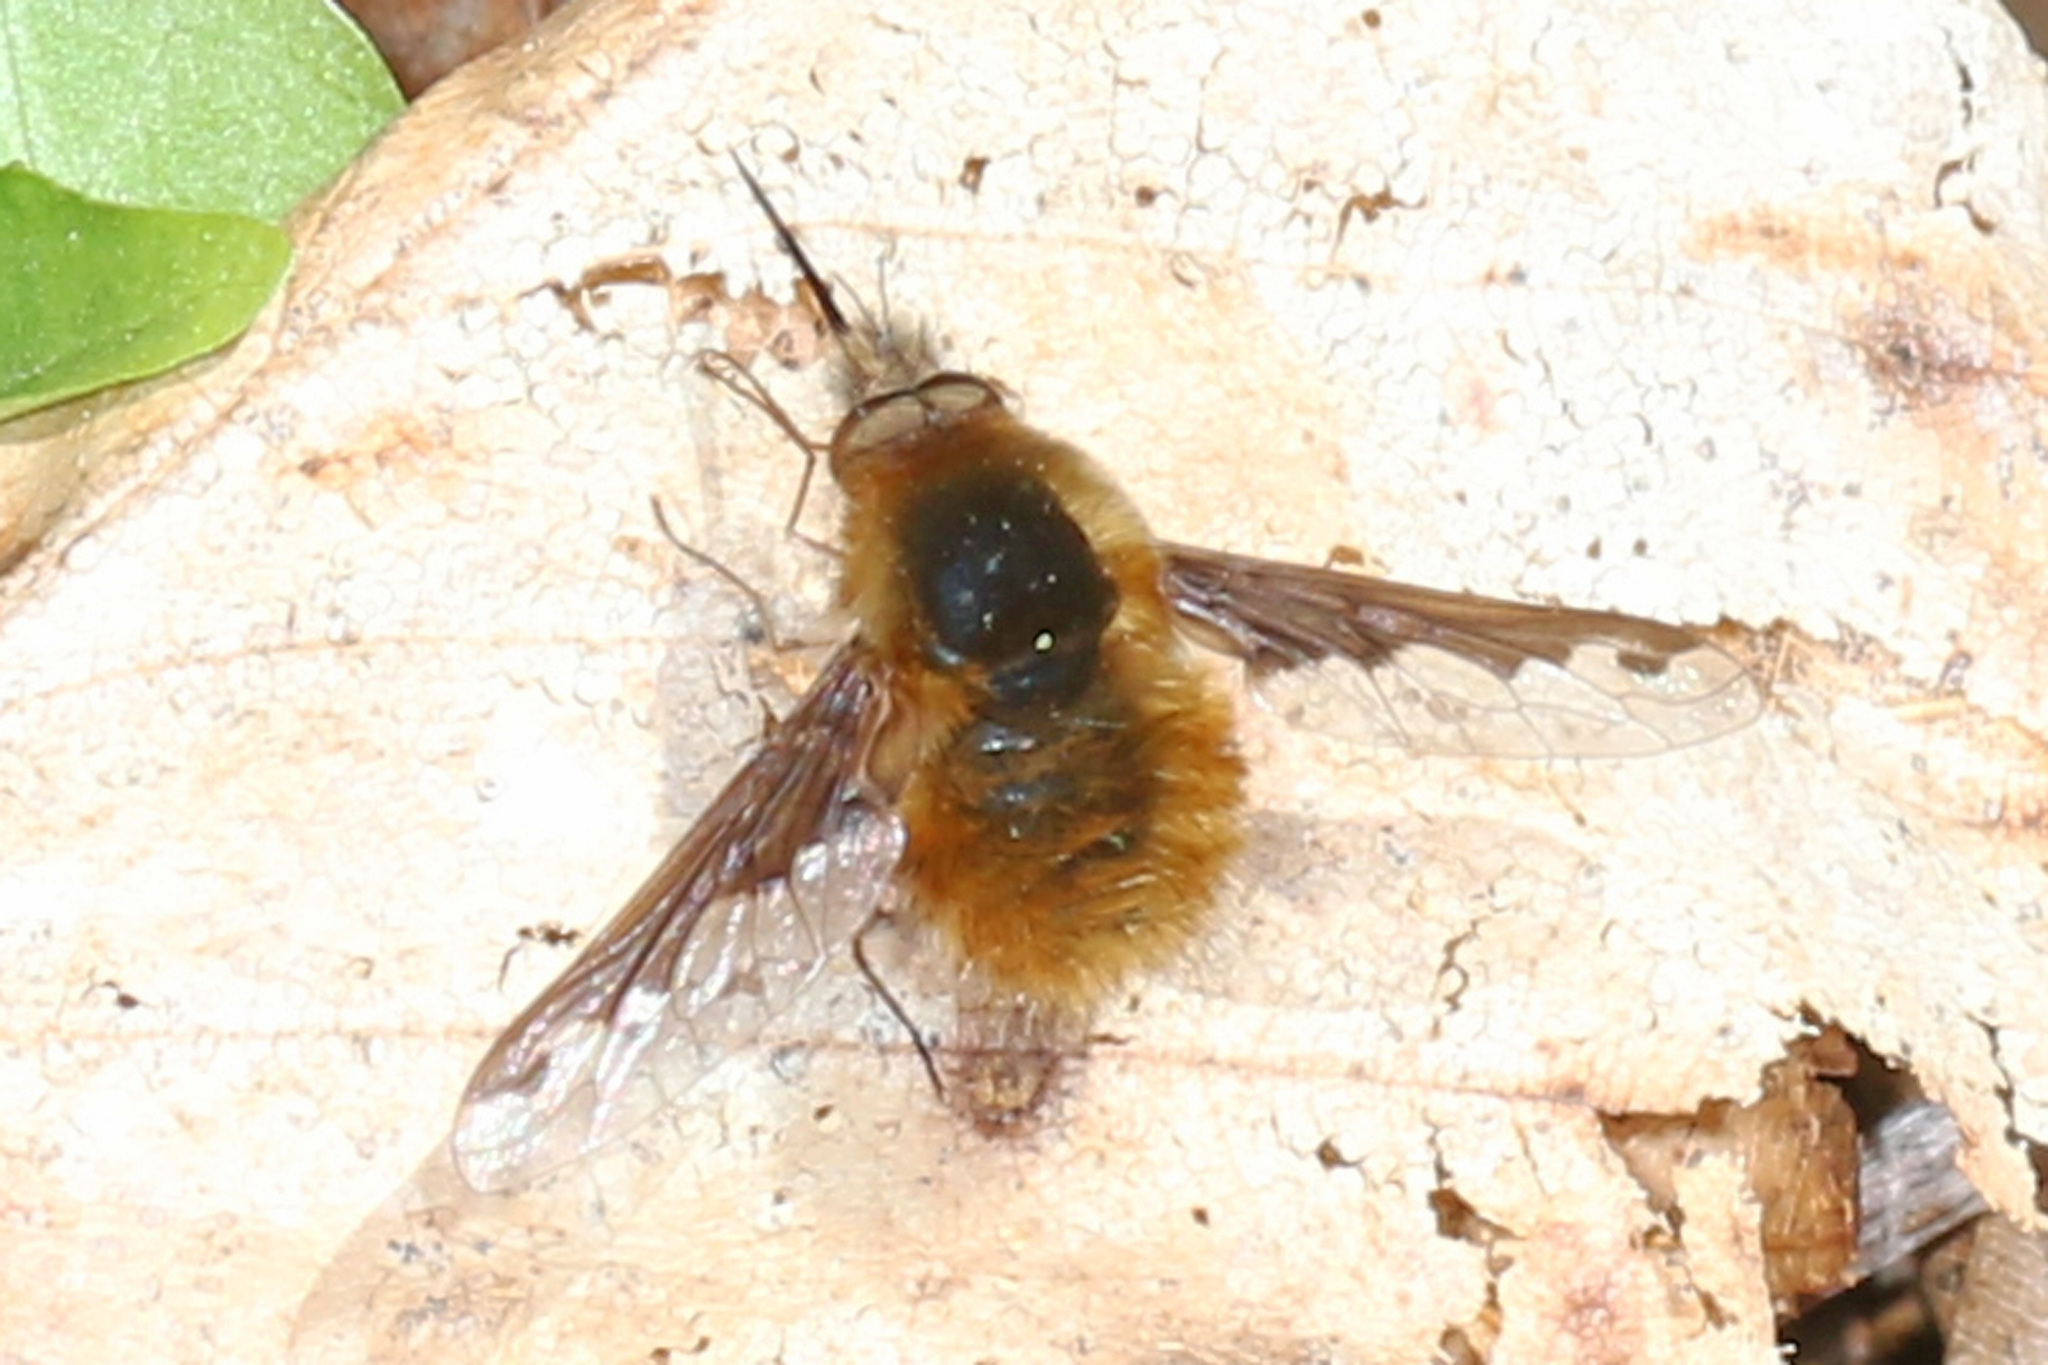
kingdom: Animalia
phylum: Arthropoda
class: Insecta
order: Diptera
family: Bombyliidae
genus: Bombylius
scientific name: Bombylius major
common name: Bee fly
